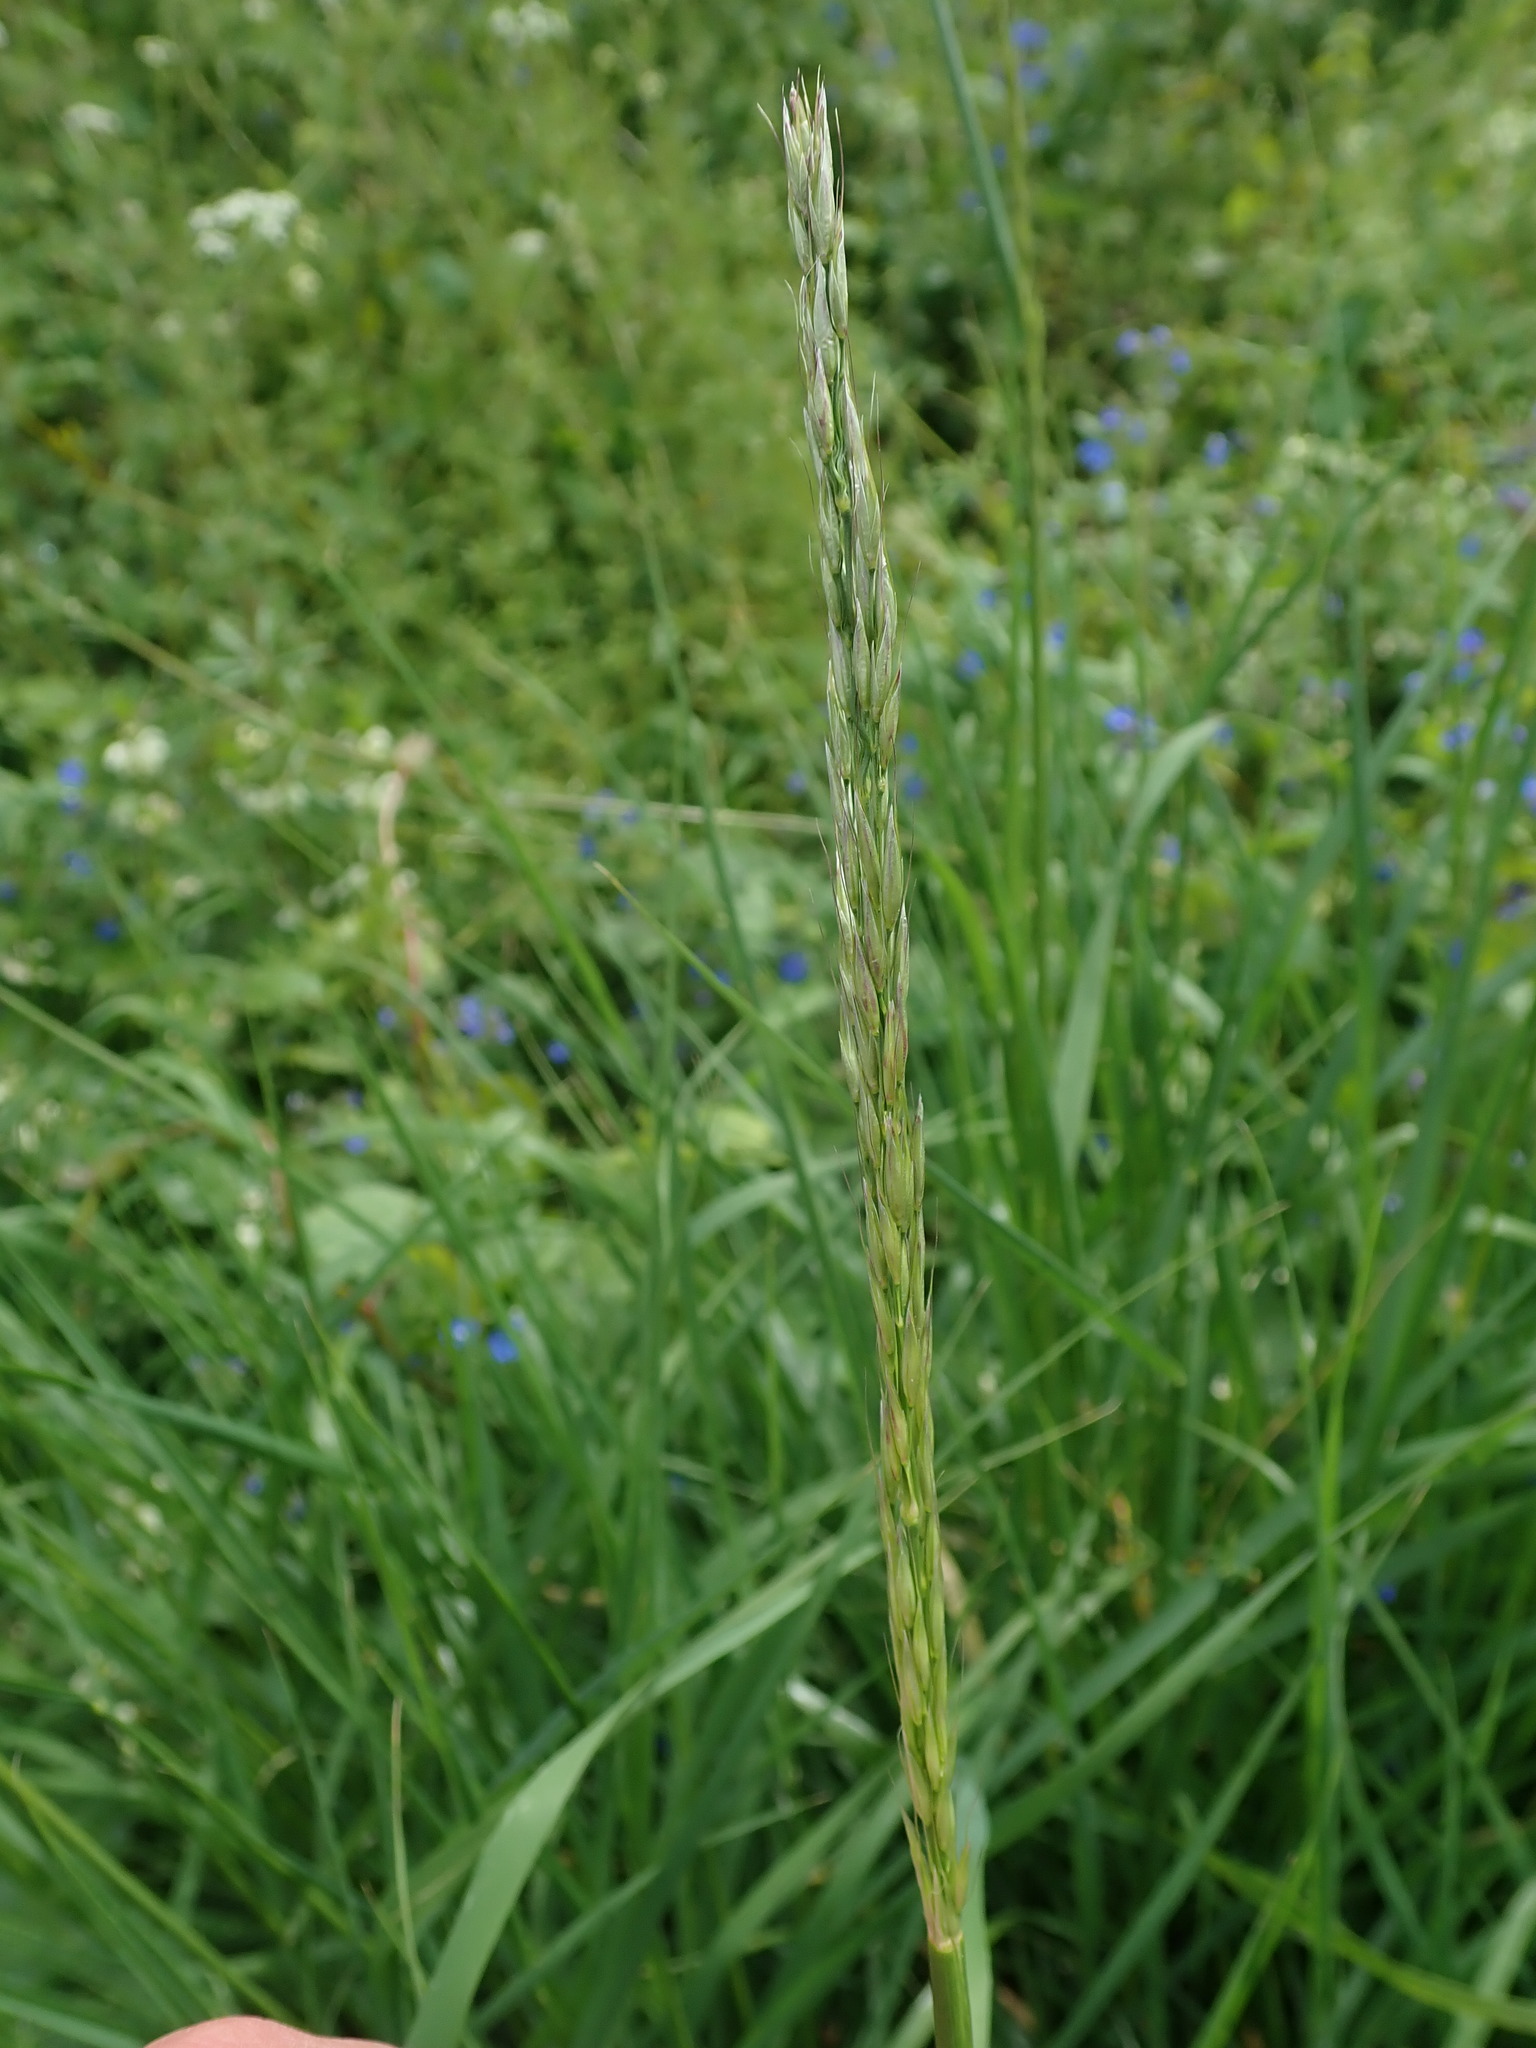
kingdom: Plantae
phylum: Tracheophyta
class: Liliopsida
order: Poales
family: Poaceae
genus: Arrhenatherum
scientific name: Arrhenatherum elatius
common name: Tall oatgrass
